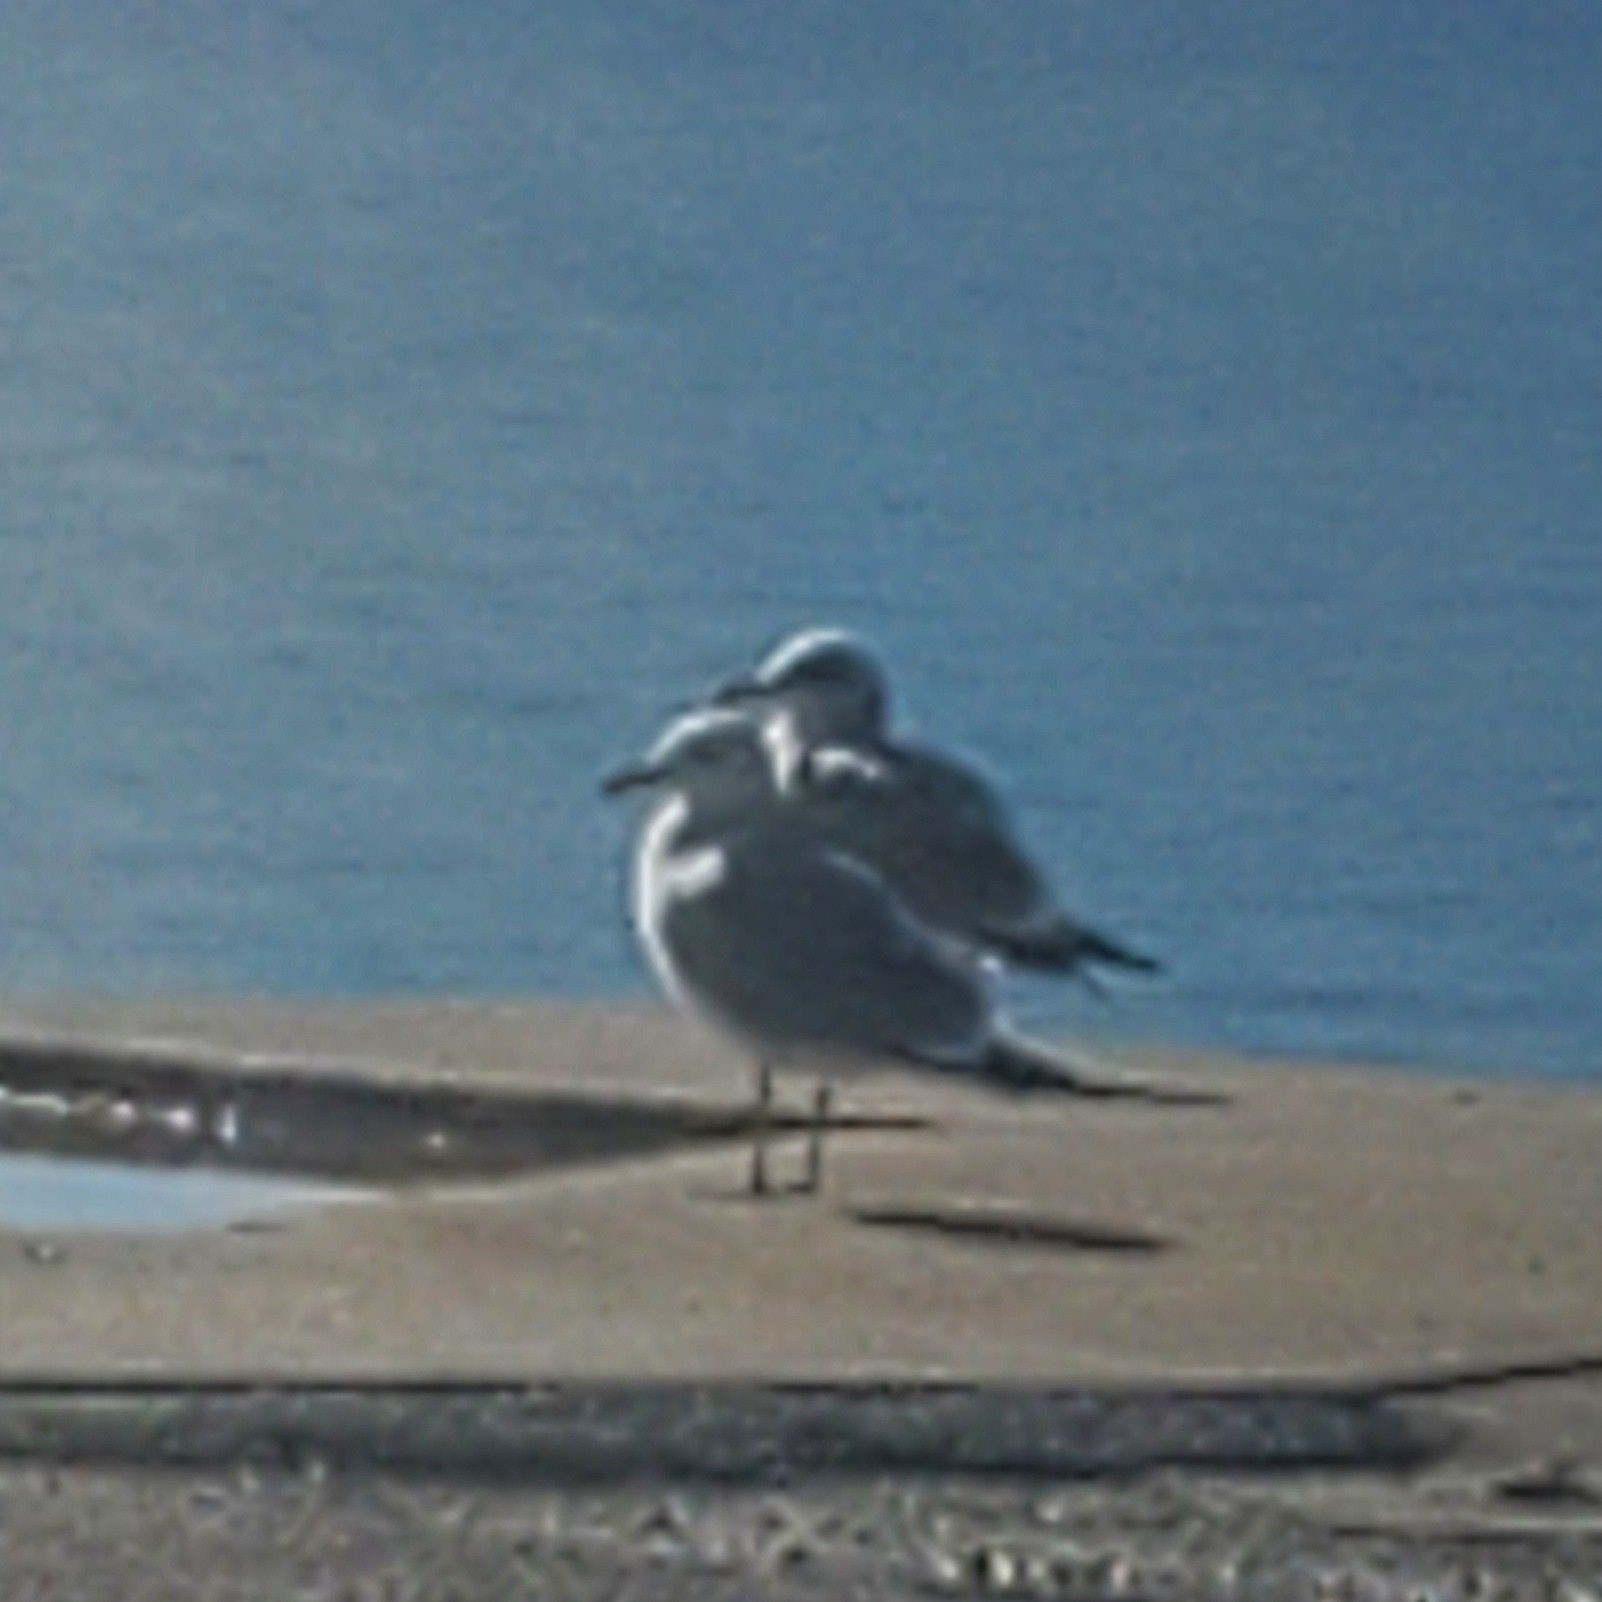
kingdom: Animalia
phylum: Chordata
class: Aves
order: Charadriiformes
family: Laridae
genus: Larus
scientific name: Larus
